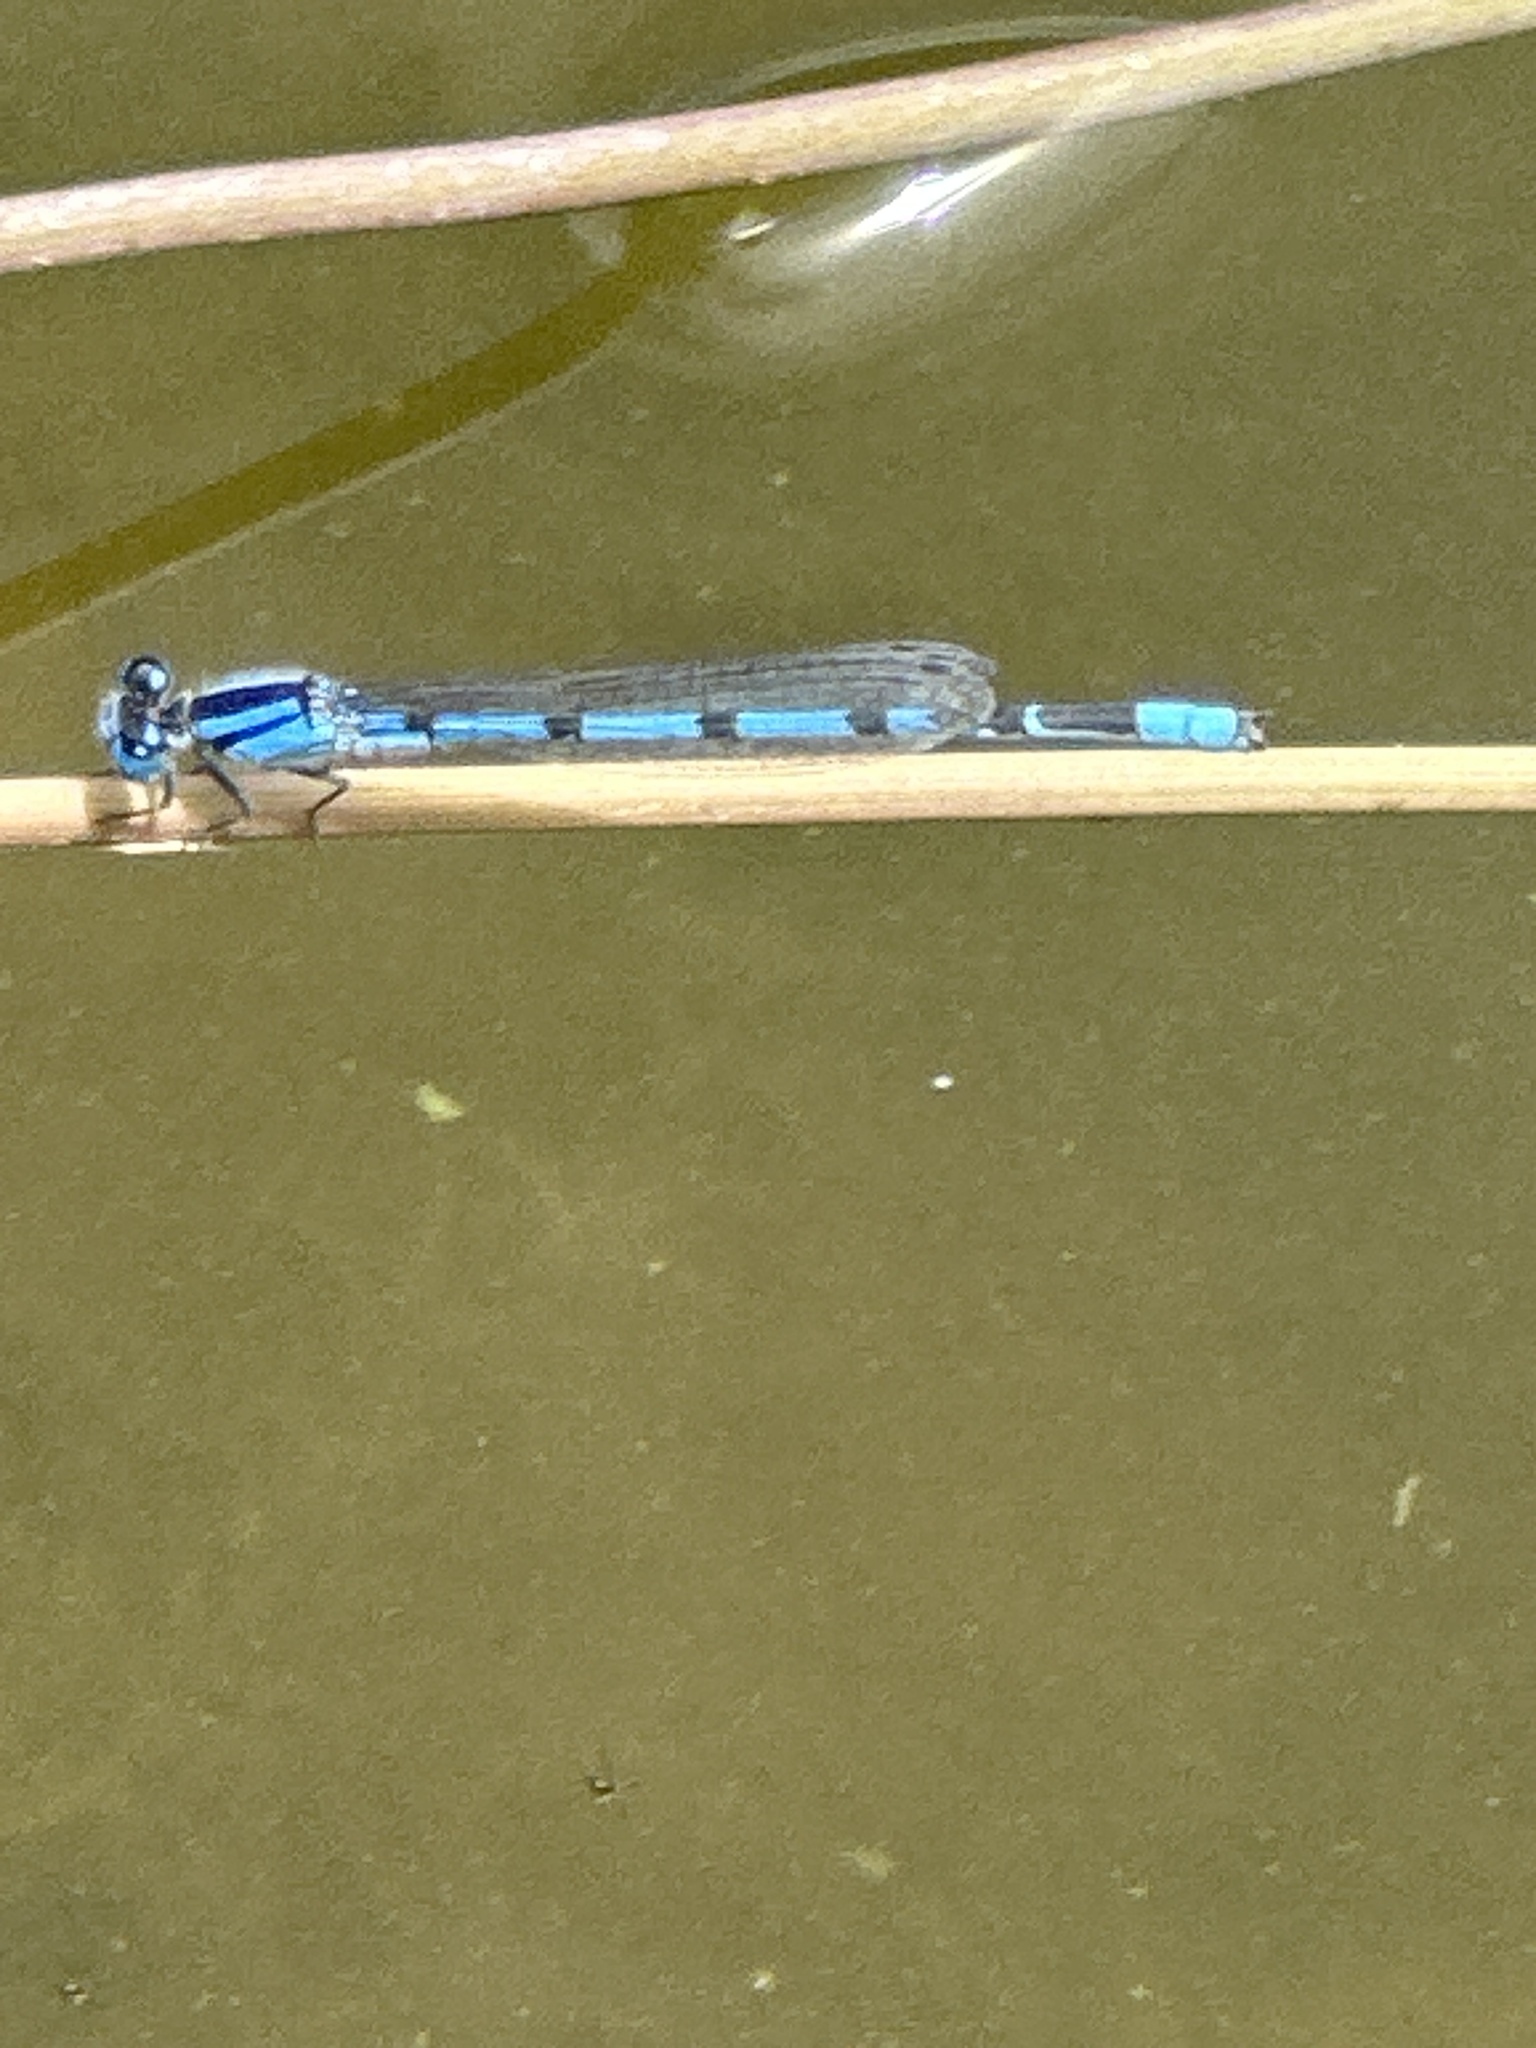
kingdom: Animalia
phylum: Arthropoda
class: Insecta
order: Odonata
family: Coenagrionidae
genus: Enallagma
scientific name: Enallagma civile
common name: Damselfly
